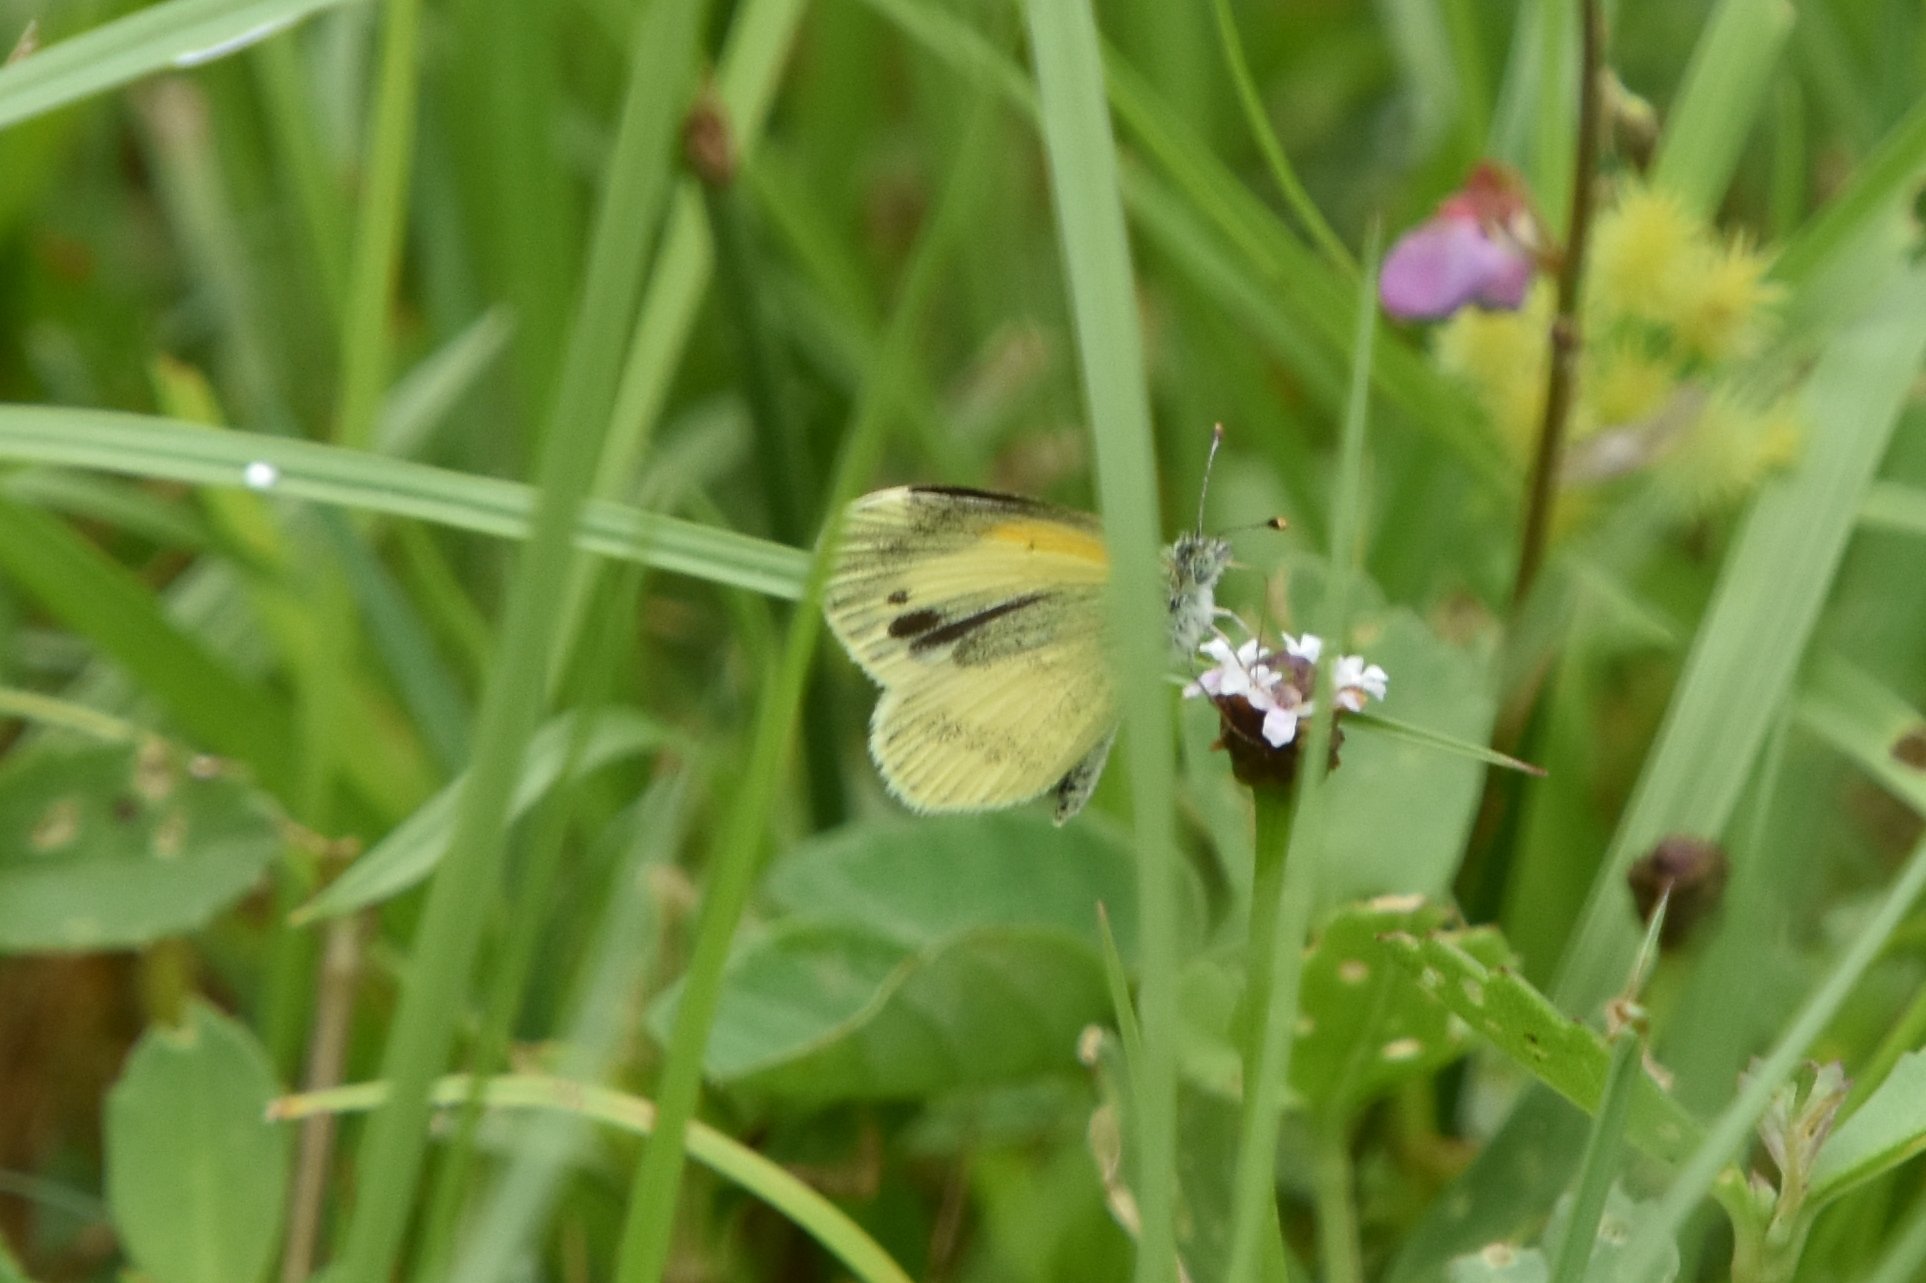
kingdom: Animalia
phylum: Arthropoda
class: Insecta
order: Lepidoptera
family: Pieridae
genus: Nathalis
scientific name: Nathalis iole
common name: Dainty sulphur
